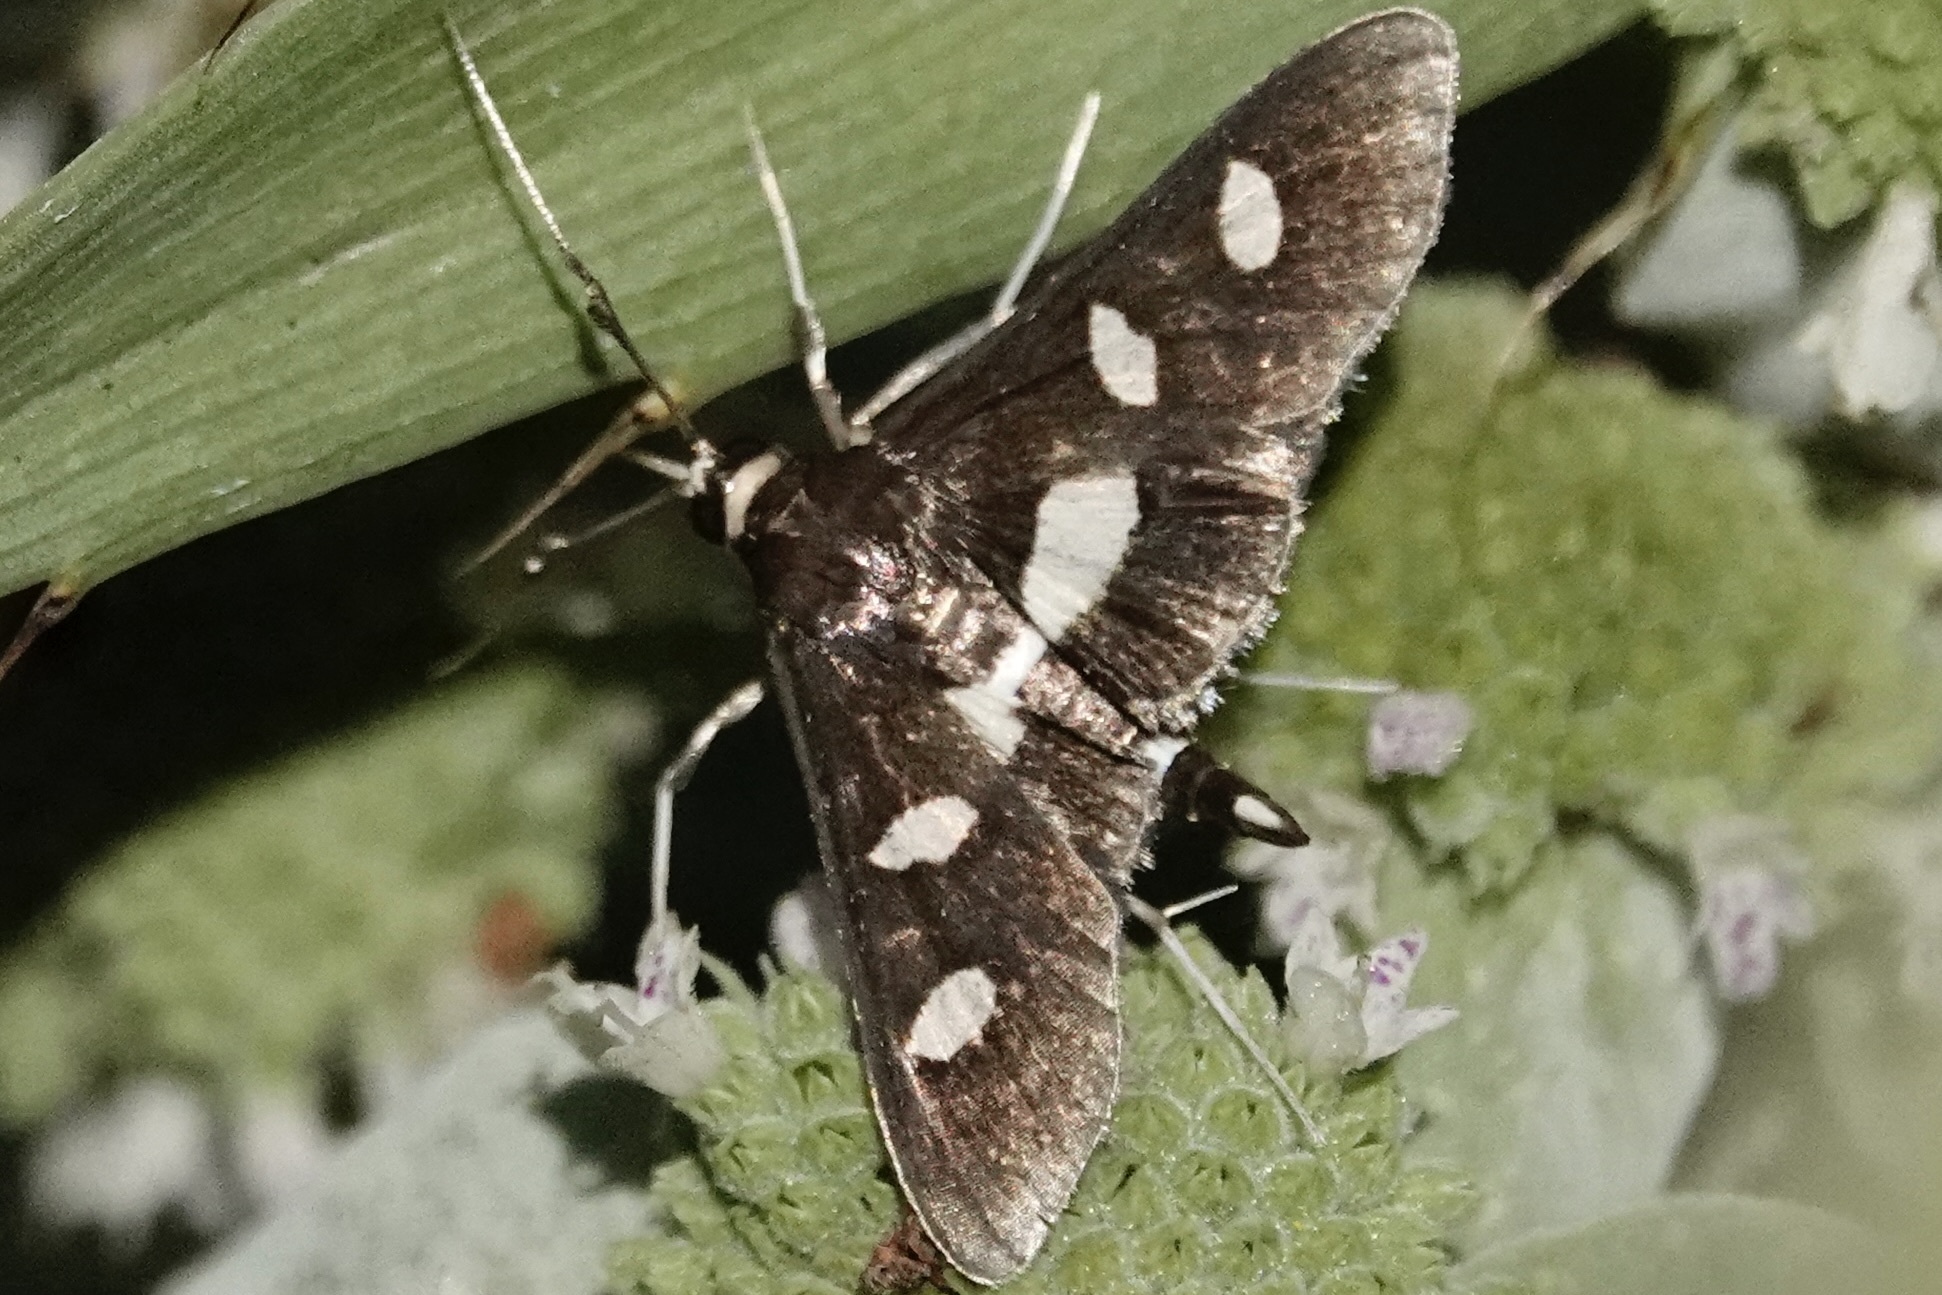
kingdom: Animalia
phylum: Arthropoda
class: Insecta
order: Lepidoptera
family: Crambidae
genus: Desmia
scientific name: Desmia
